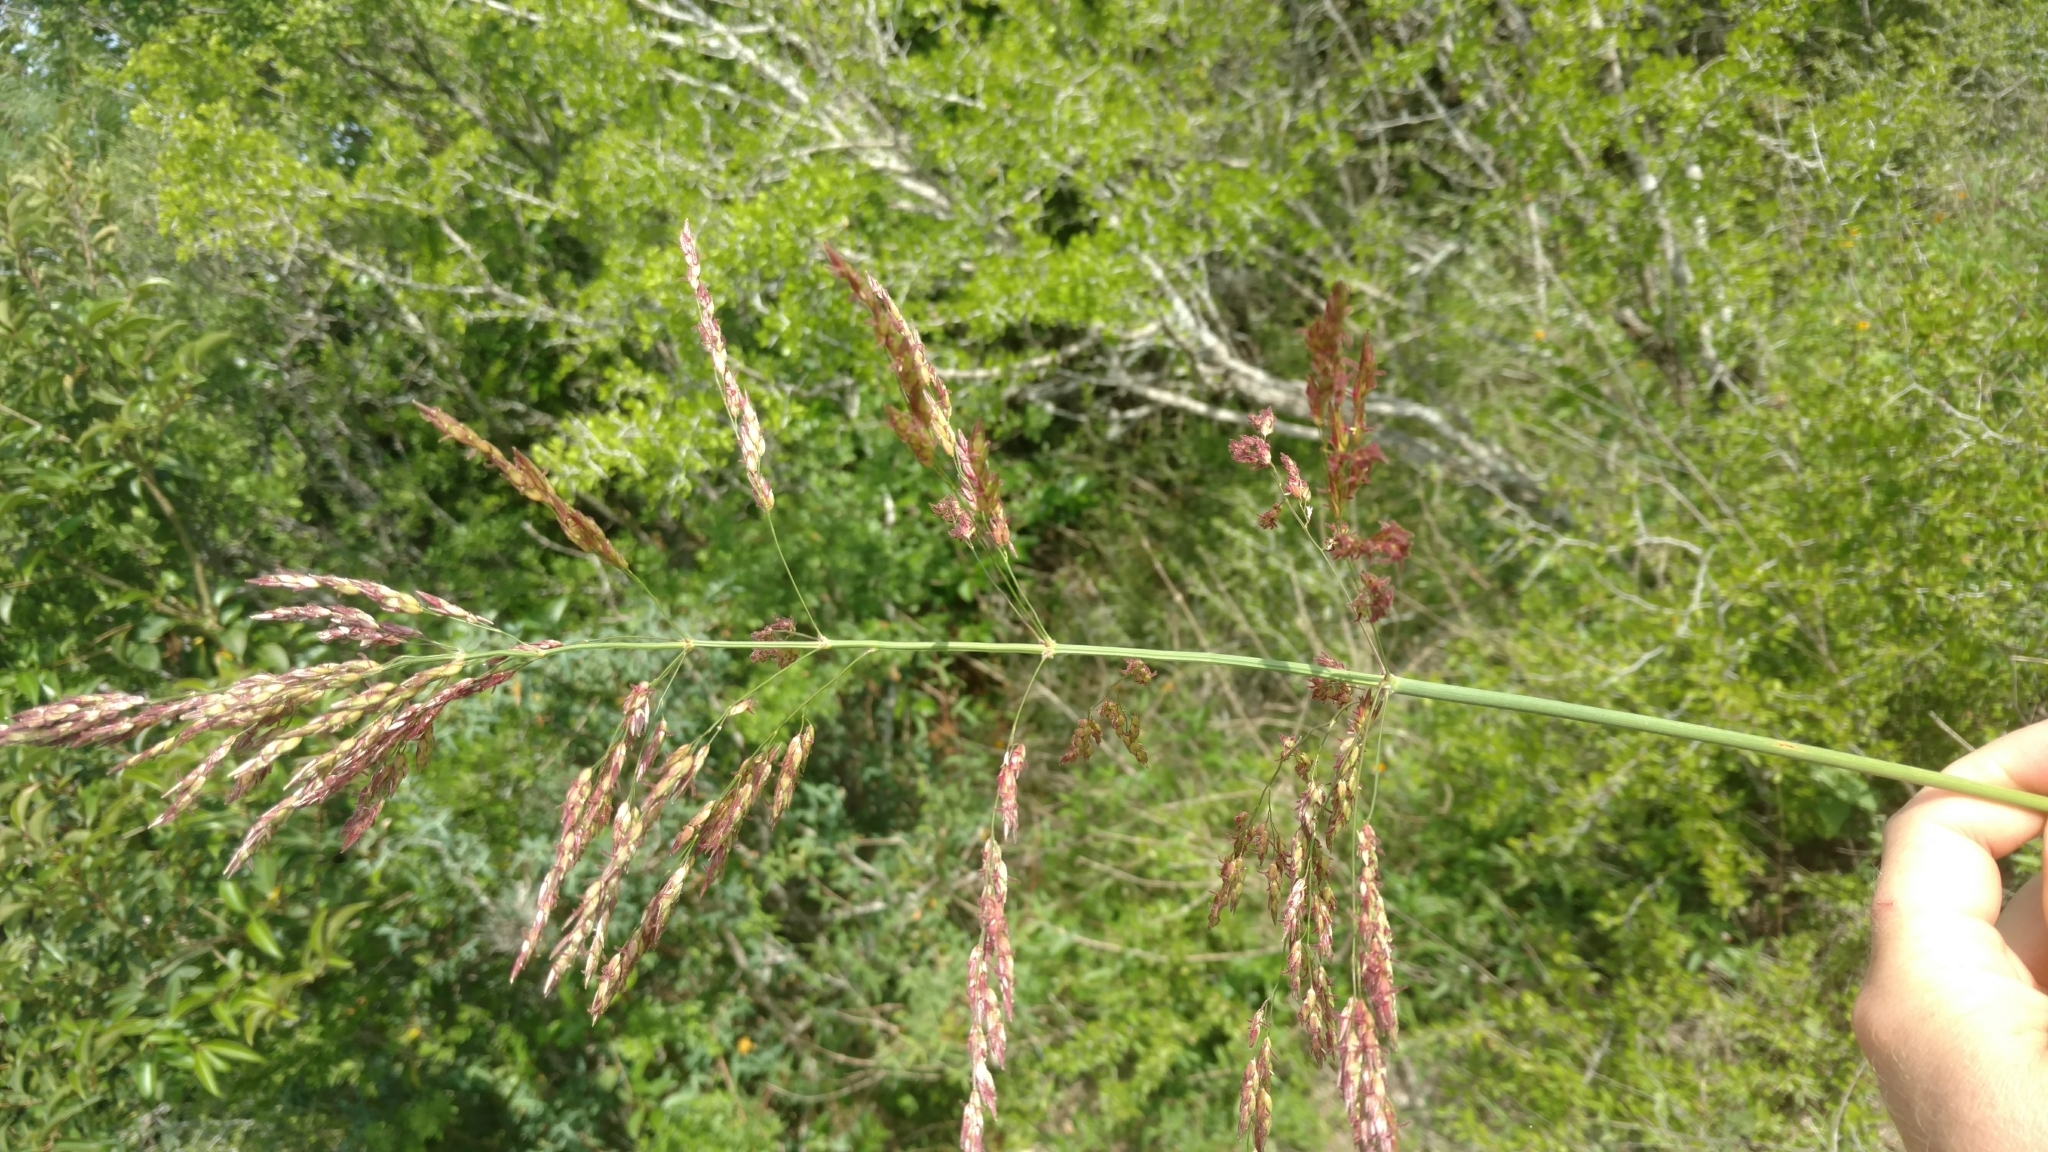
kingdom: Plantae
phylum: Tracheophyta
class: Liliopsida
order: Poales
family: Poaceae
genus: Sorghum
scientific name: Sorghum halepense
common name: Johnson-grass
